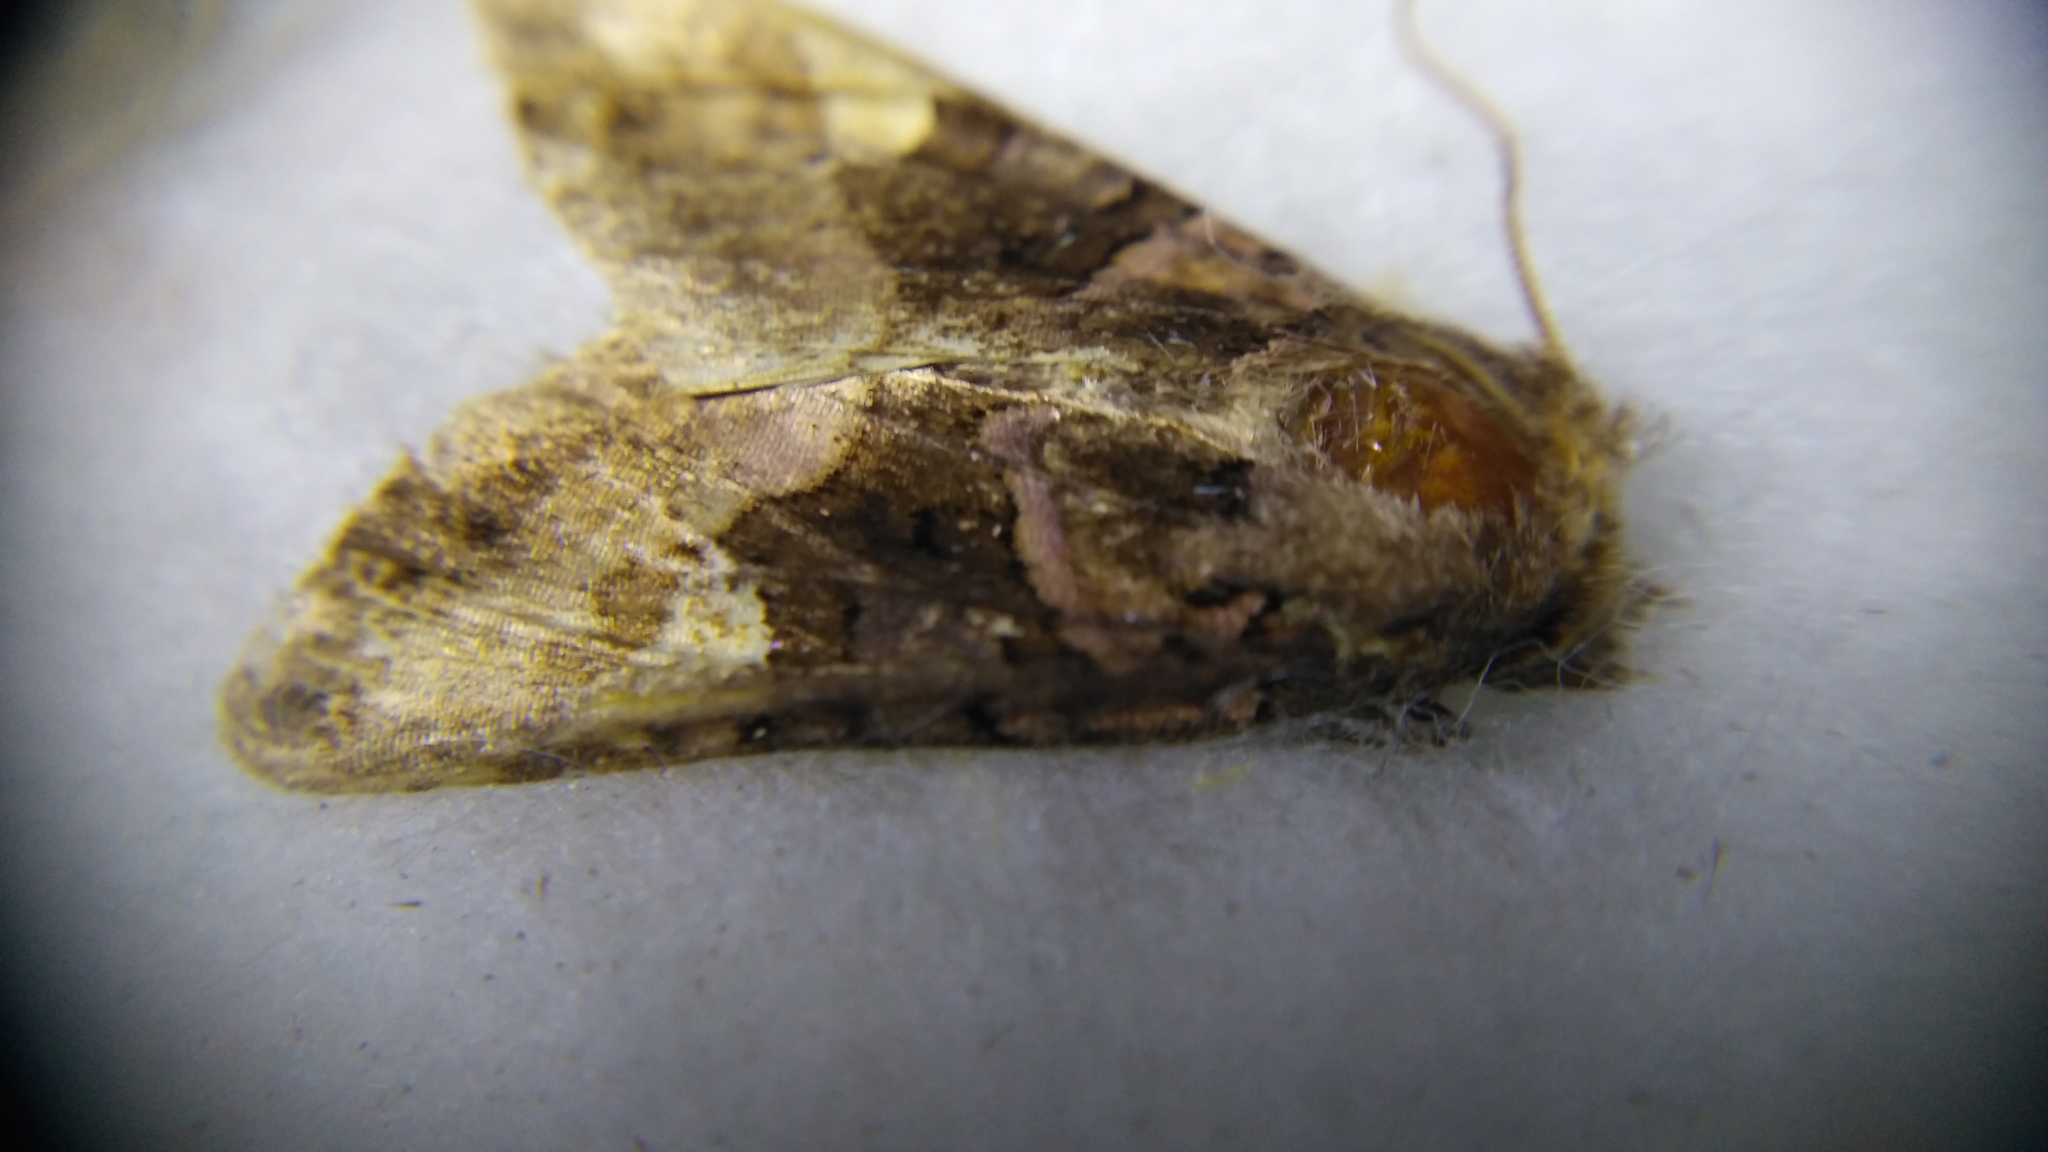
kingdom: Animalia
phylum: Arthropoda
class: Insecta
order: Lepidoptera
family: Noctuidae
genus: Euplexia
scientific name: Euplexia lucipara
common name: Small angle shades
